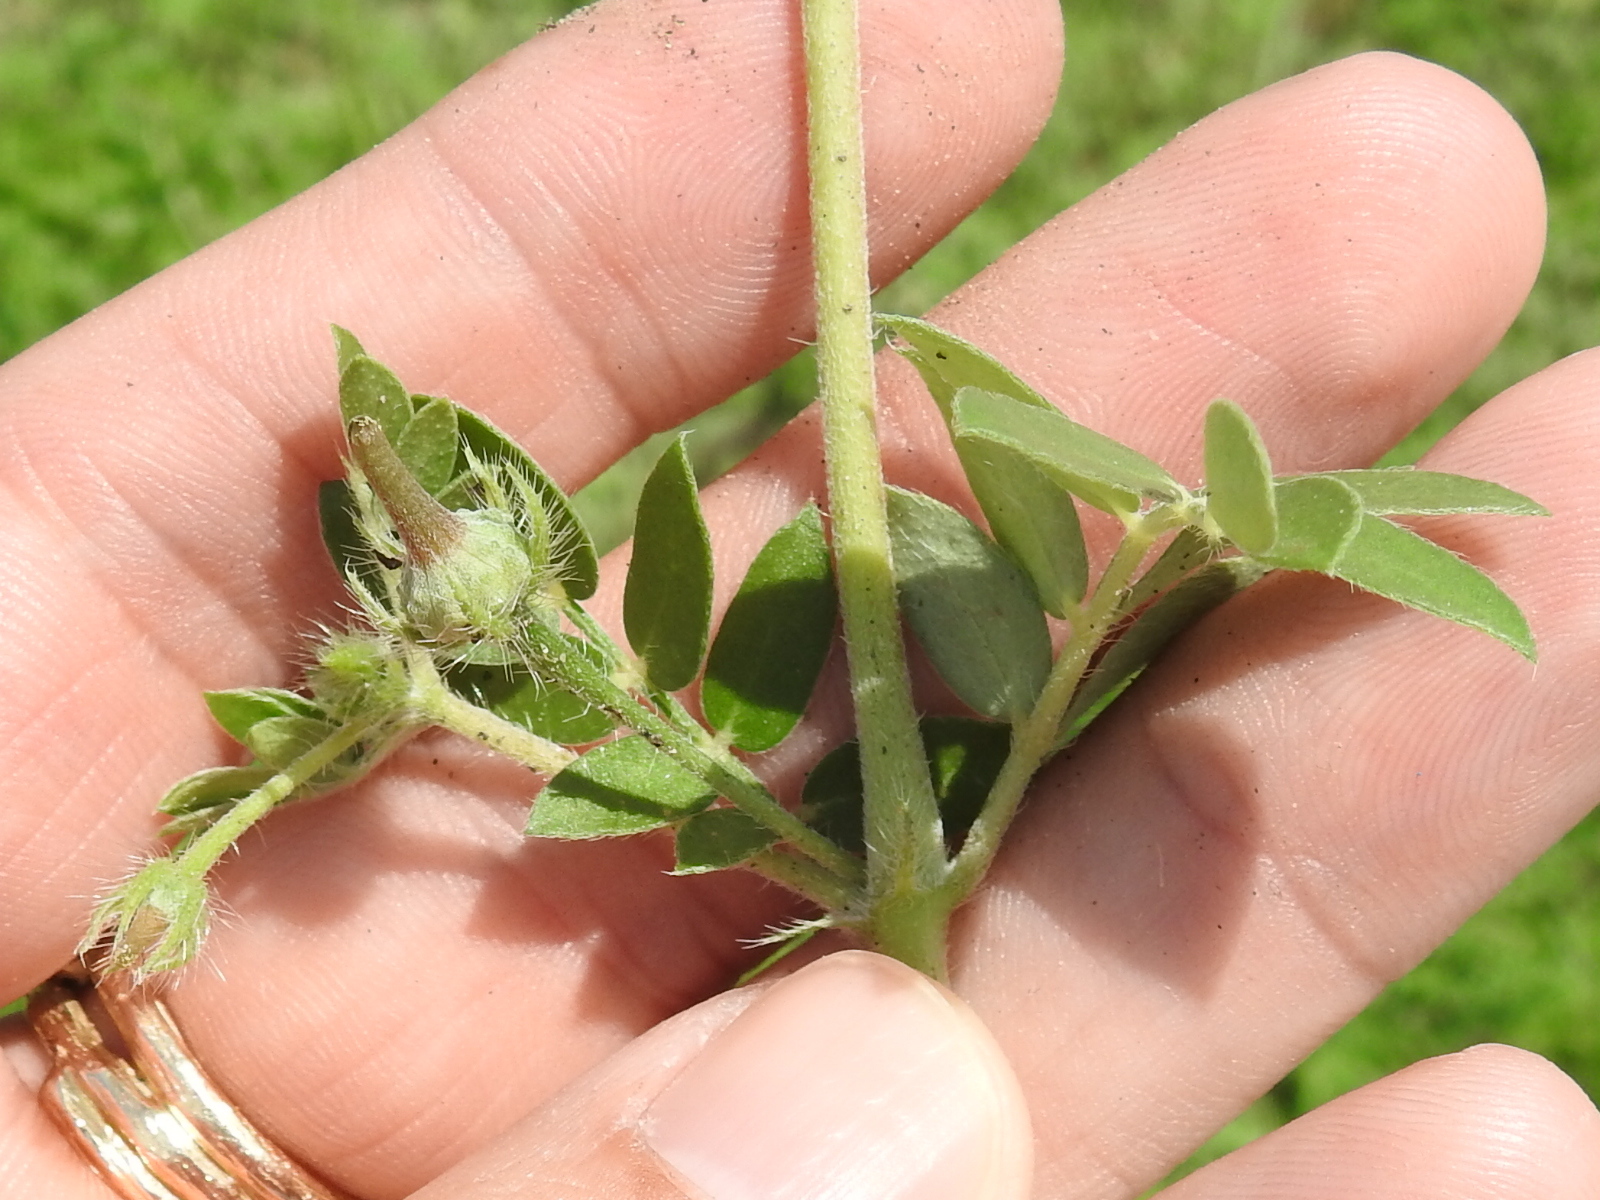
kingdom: Plantae
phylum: Tracheophyta
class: Magnoliopsida
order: Zygophyllales
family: Zygophyllaceae
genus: Kallstroemia
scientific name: Kallstroemia parviflora
